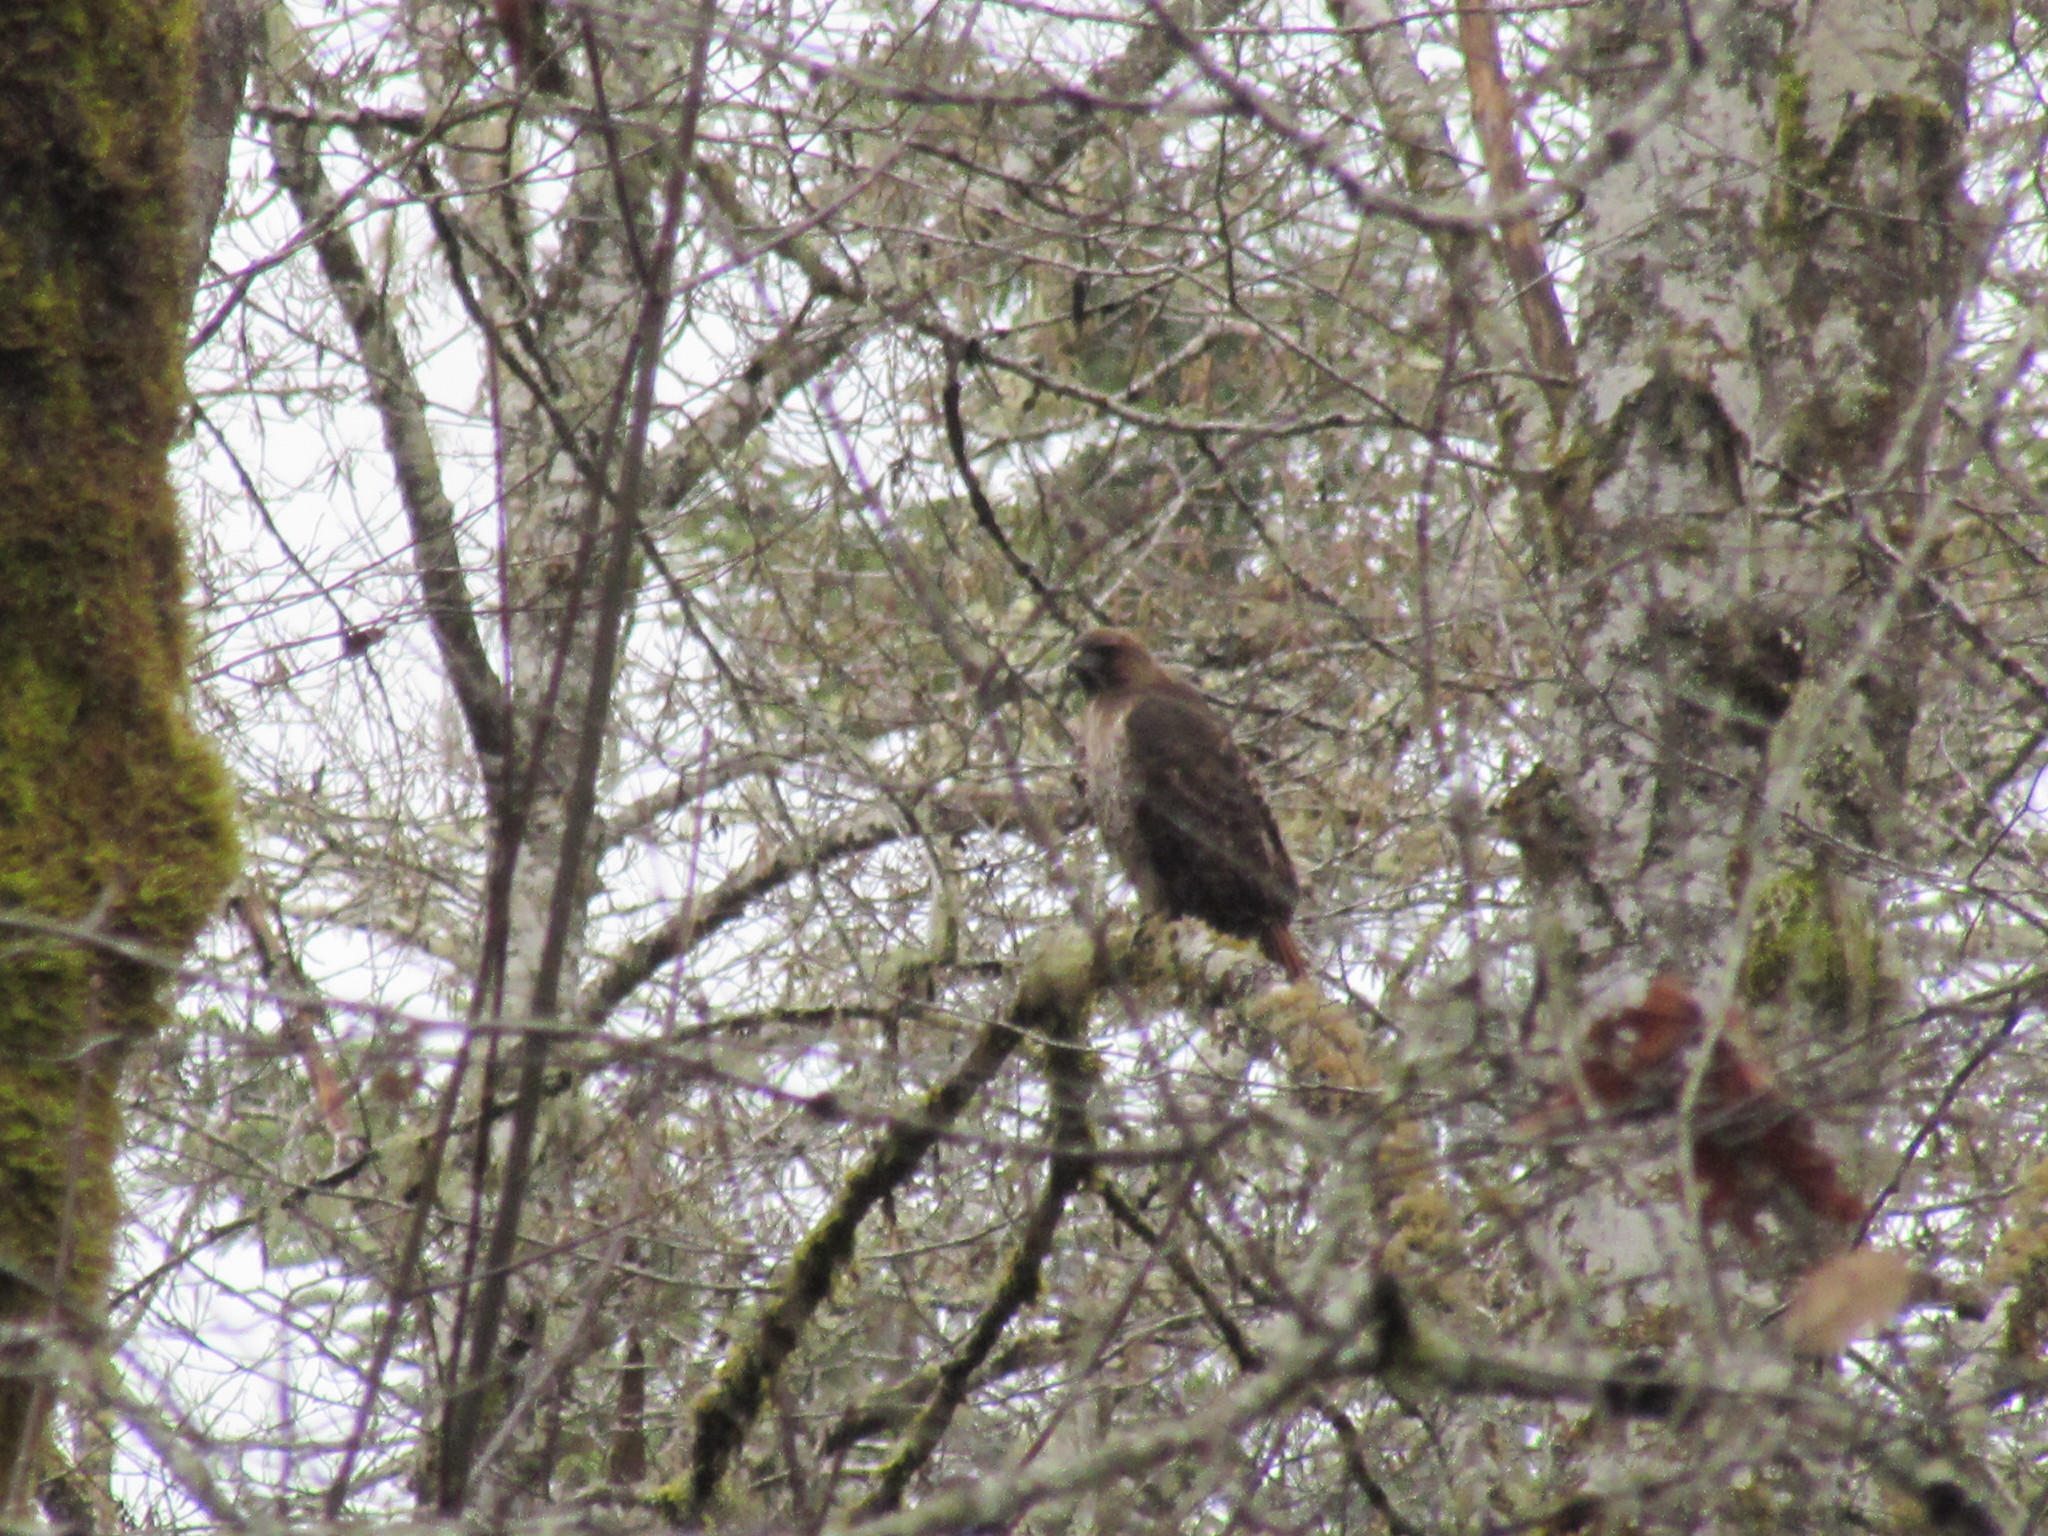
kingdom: Animalia
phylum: Chordata
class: Aves
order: Accipitriformes
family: Accipitridae
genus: Buteo
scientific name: Buteo jamaicensis
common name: Red-tailed hawk
